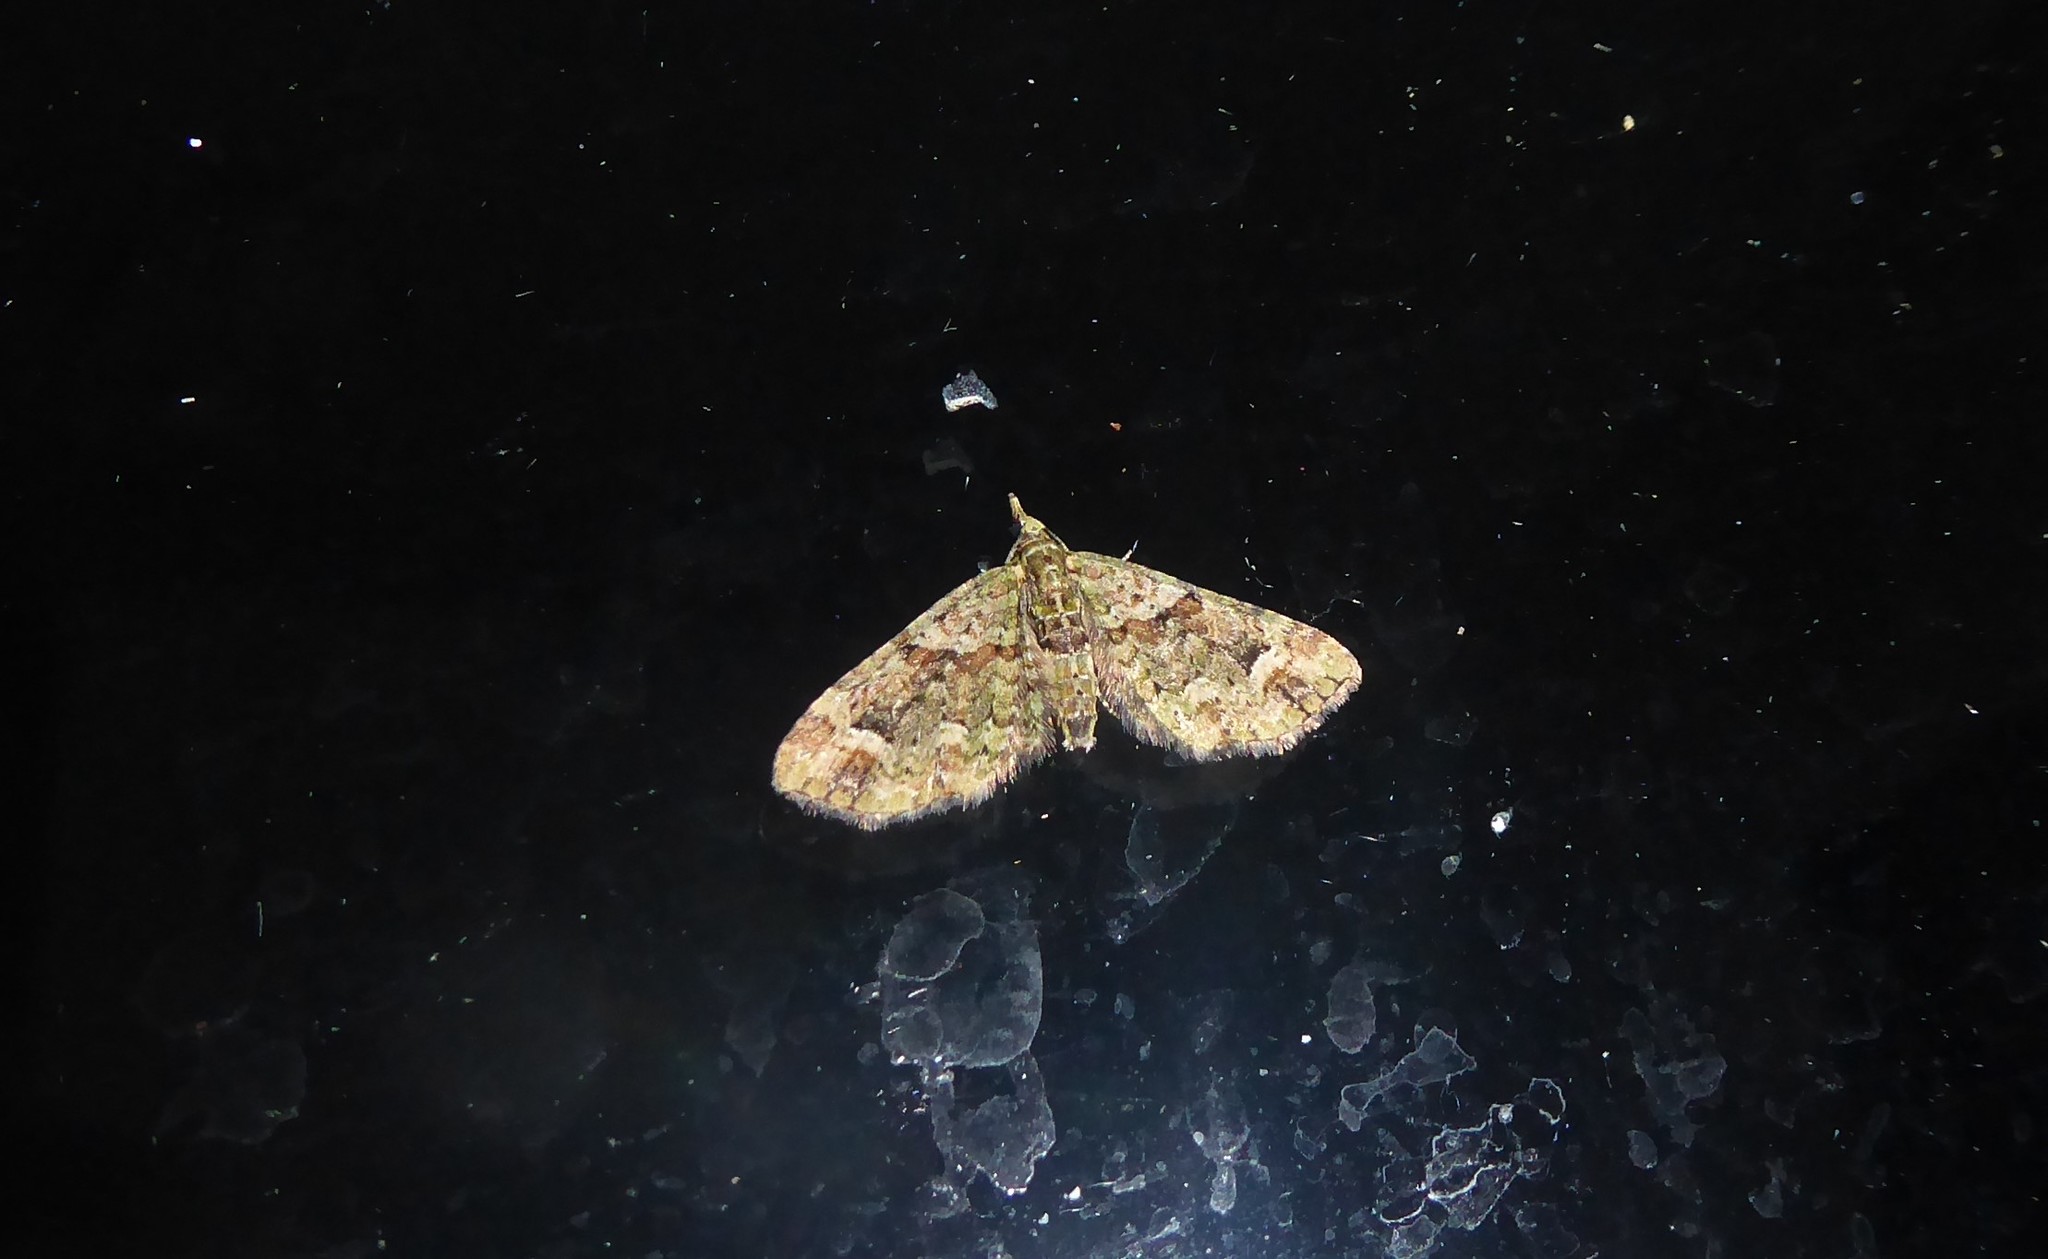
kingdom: Animalia
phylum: Arthropoda
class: Insecta
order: Lepidoptera
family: Geometridae
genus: Idaea
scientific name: Idaea mutanda
